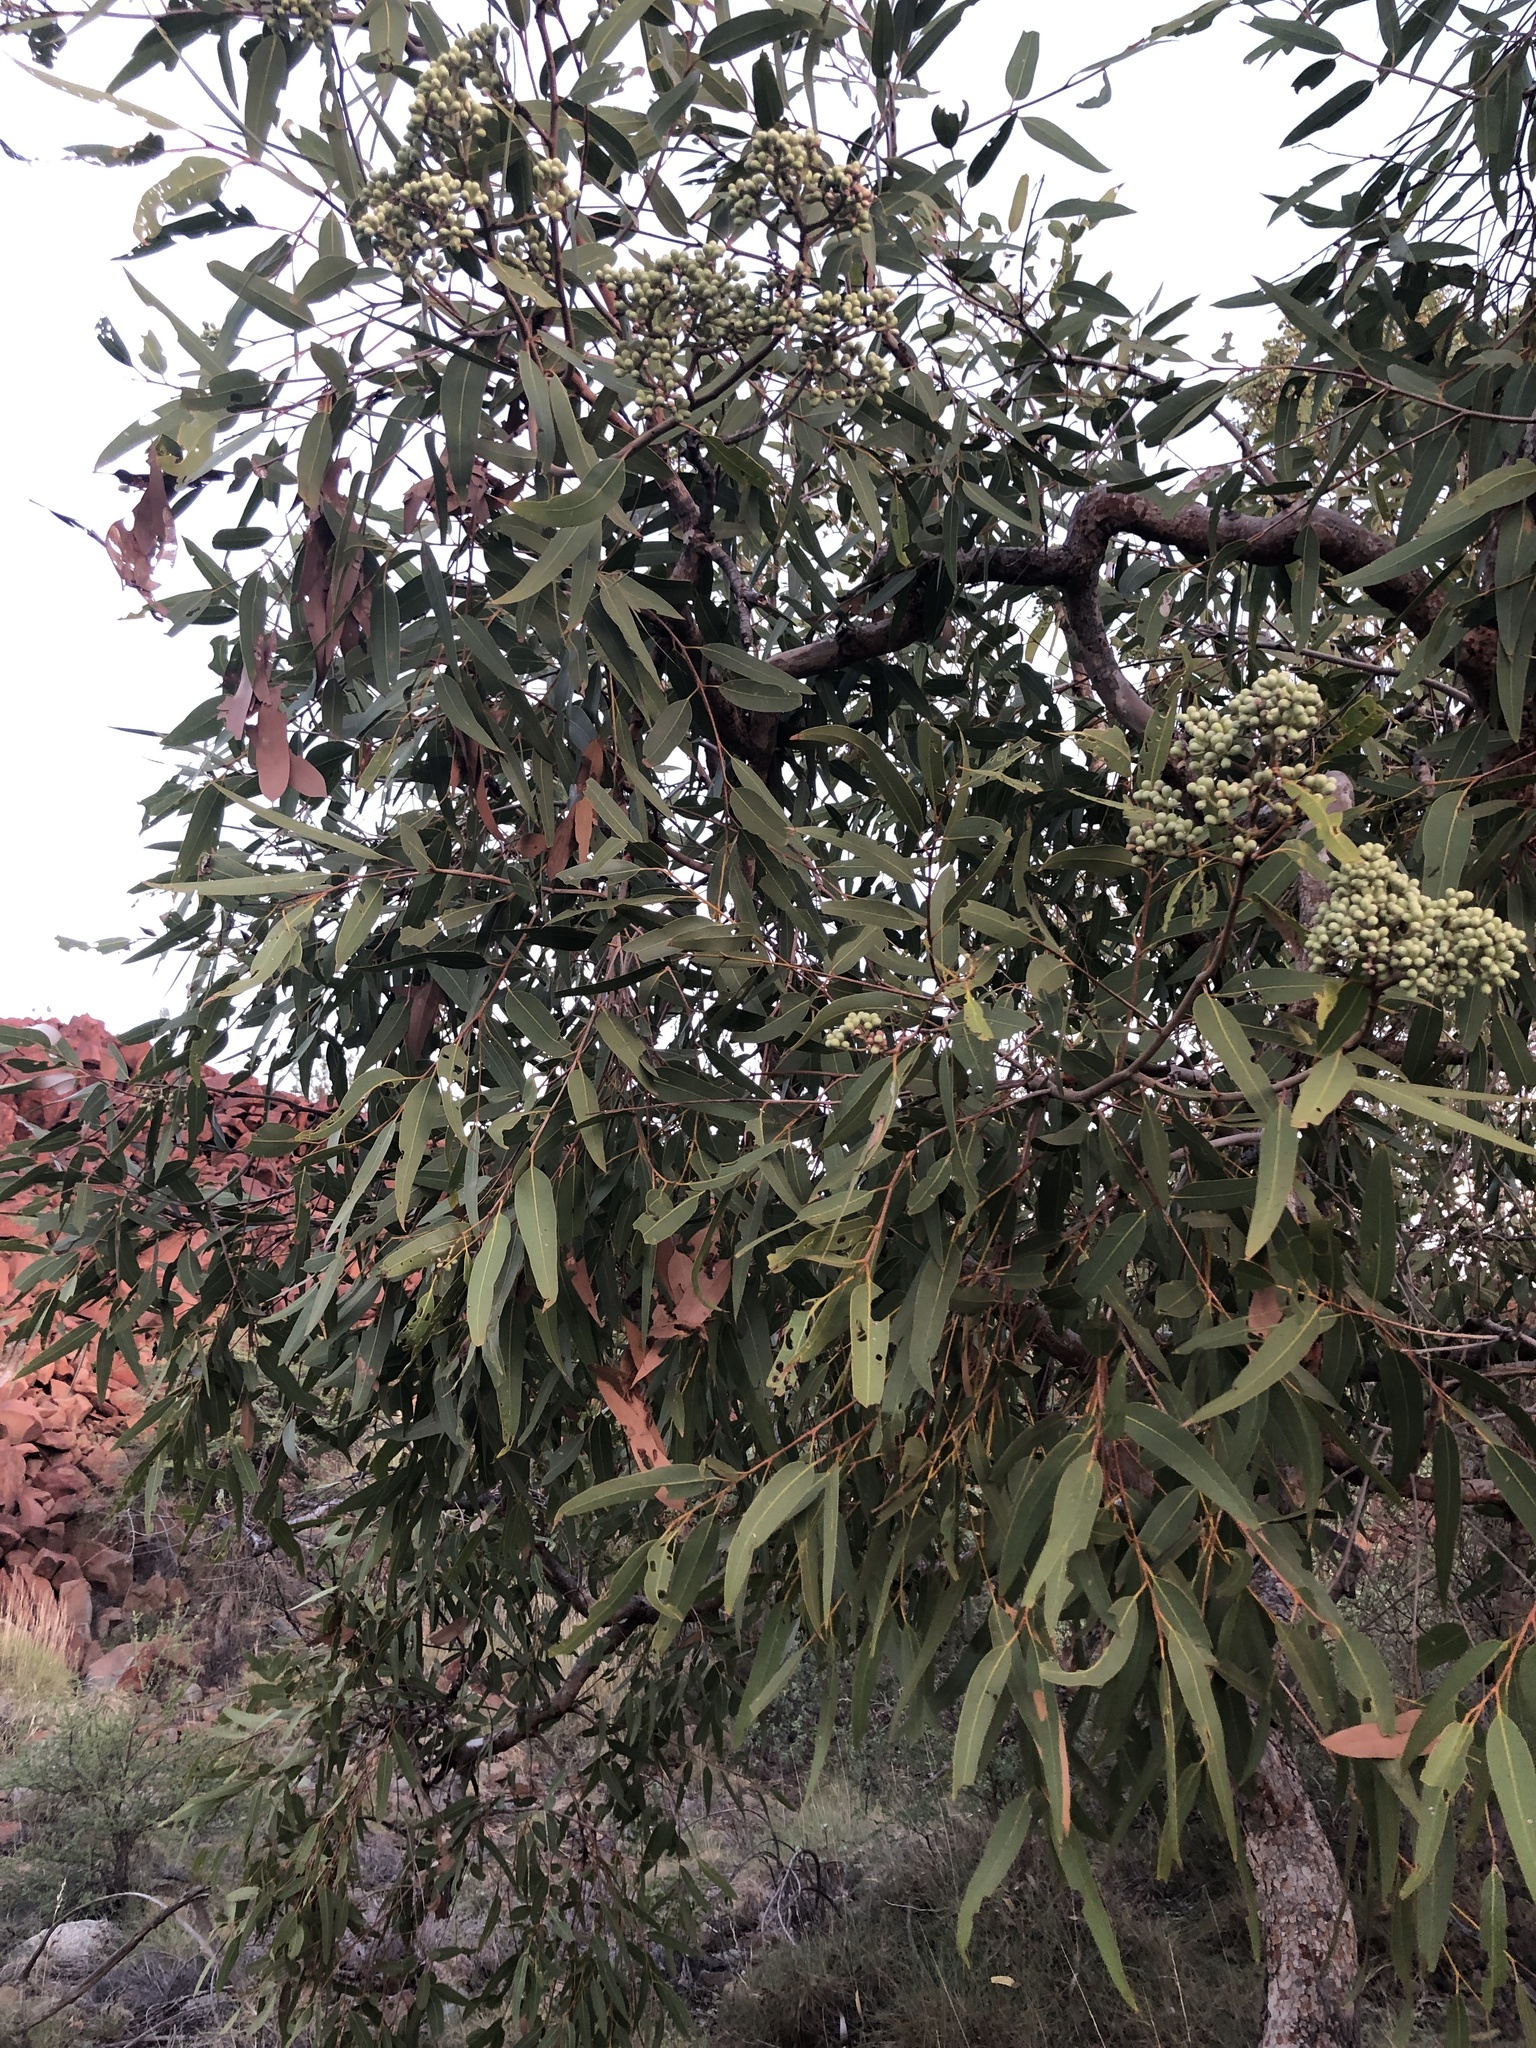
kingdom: Plantae
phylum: Tracheophyta
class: Magnoliopsida
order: Myrtales
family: Myrtaceae
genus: Corymbia
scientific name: Corymbia opaca
